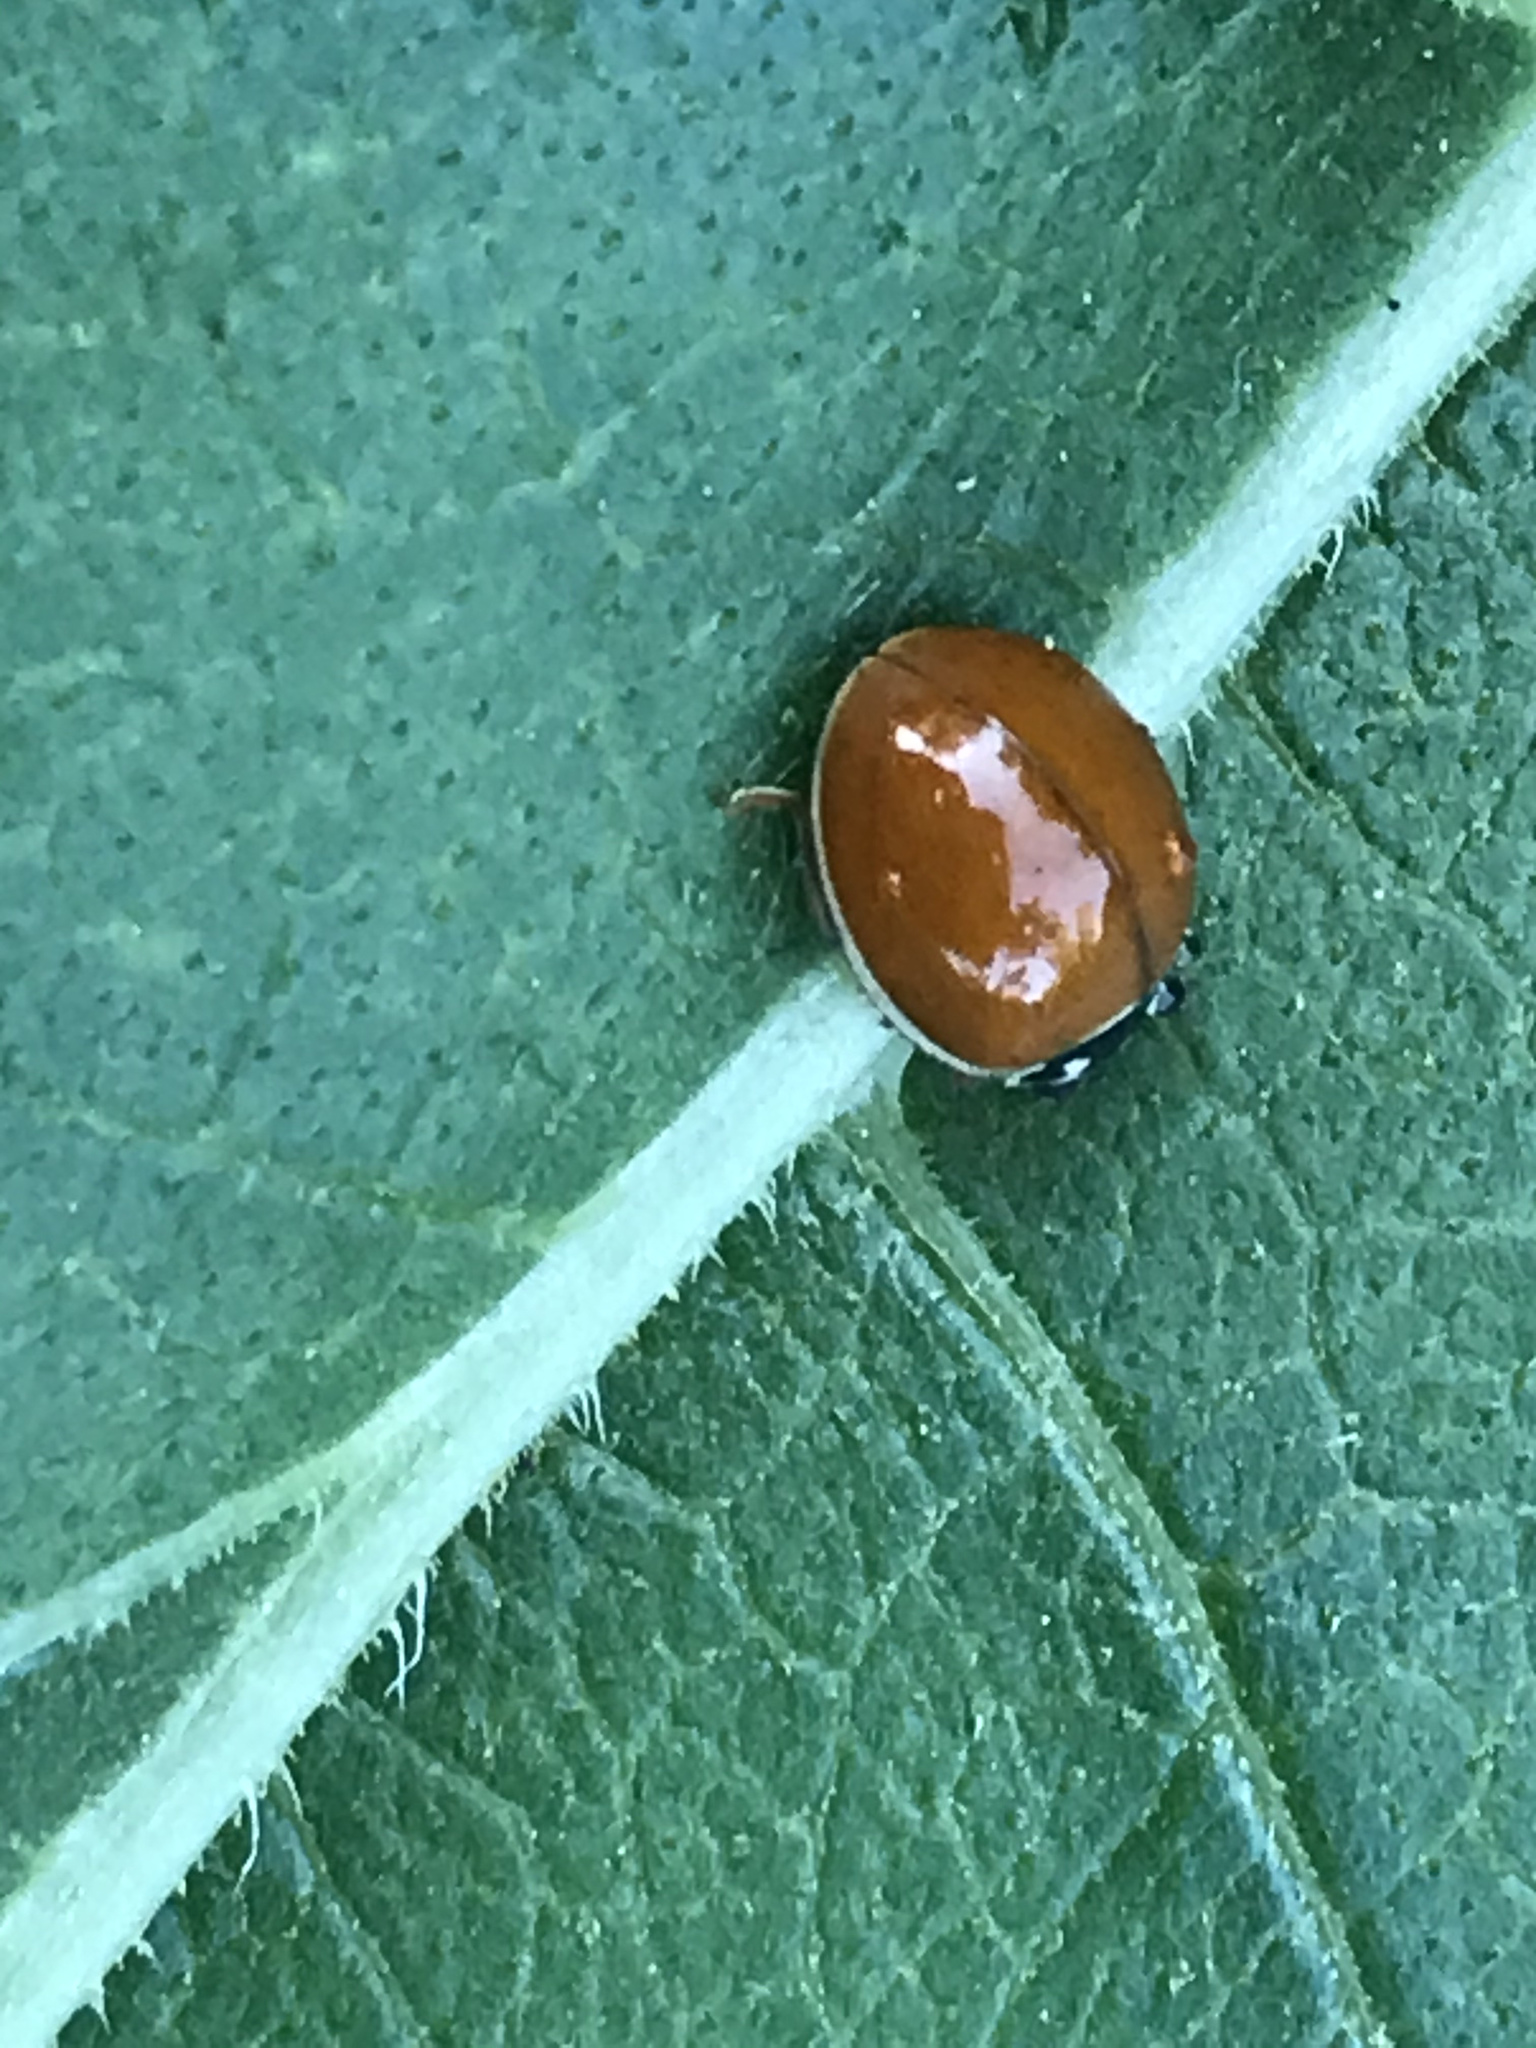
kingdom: Animalia
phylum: Arthropoda
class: Insecta
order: Coleoptera
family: Coccinellidae
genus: Cycloneda
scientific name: Cycloneda munda
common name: Polished lady beetle
